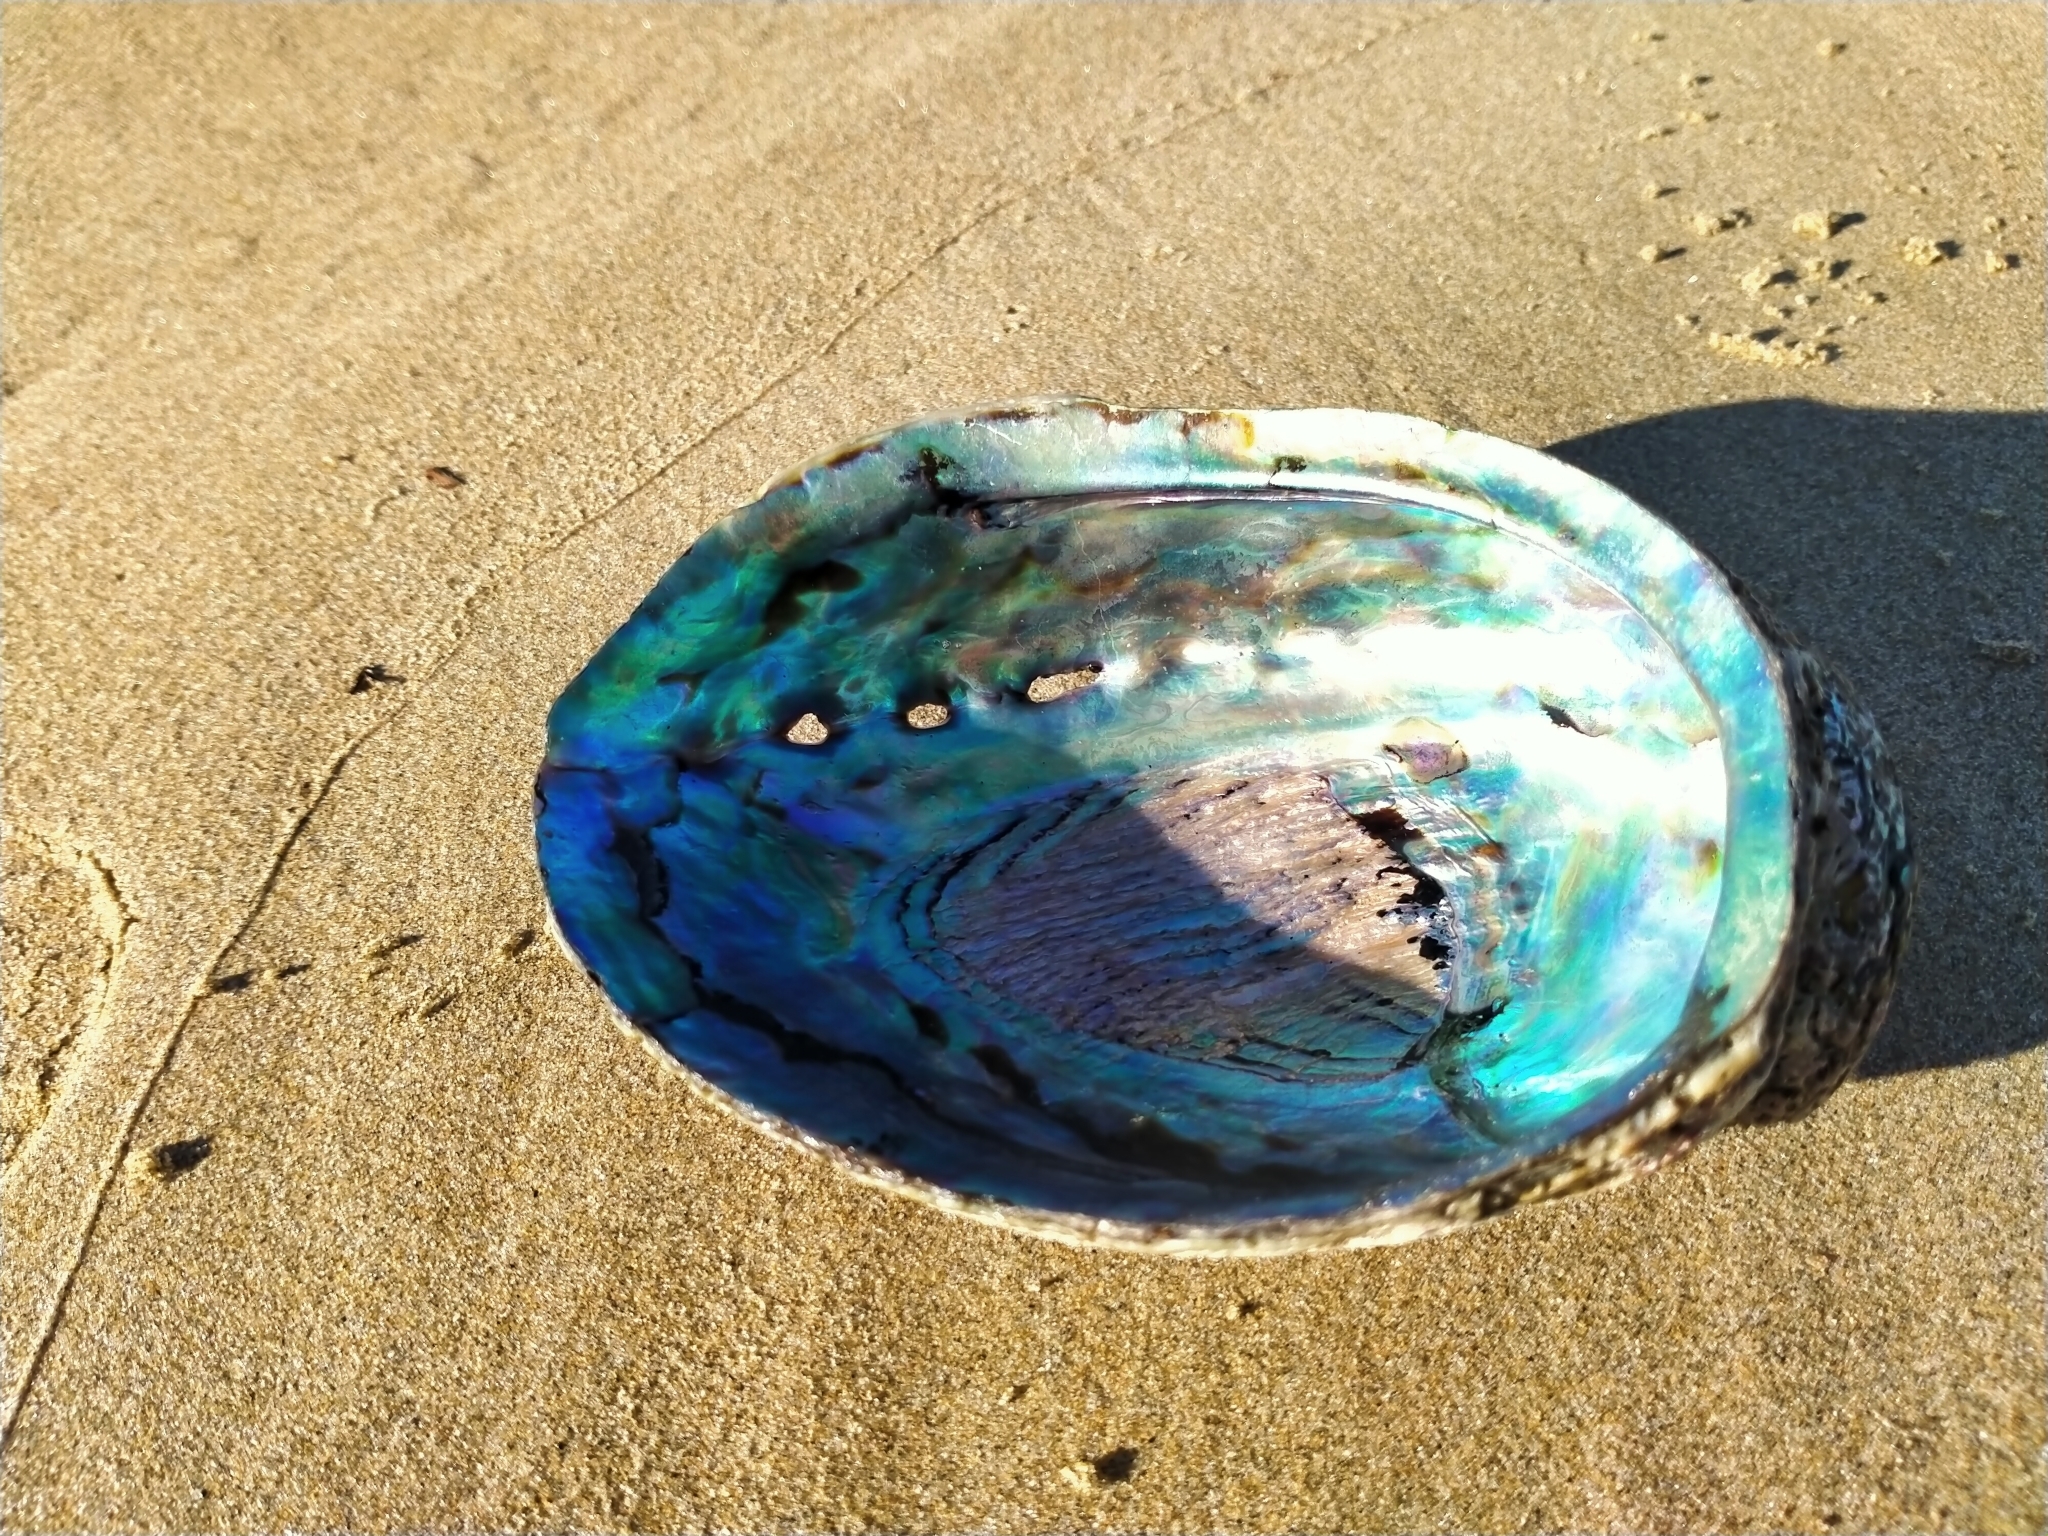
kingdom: Animalia
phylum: Mollusca
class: Gastropoda
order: Lepetellida
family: Haliotidae
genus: Haliotis
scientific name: Haliotis iris
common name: Abalone
